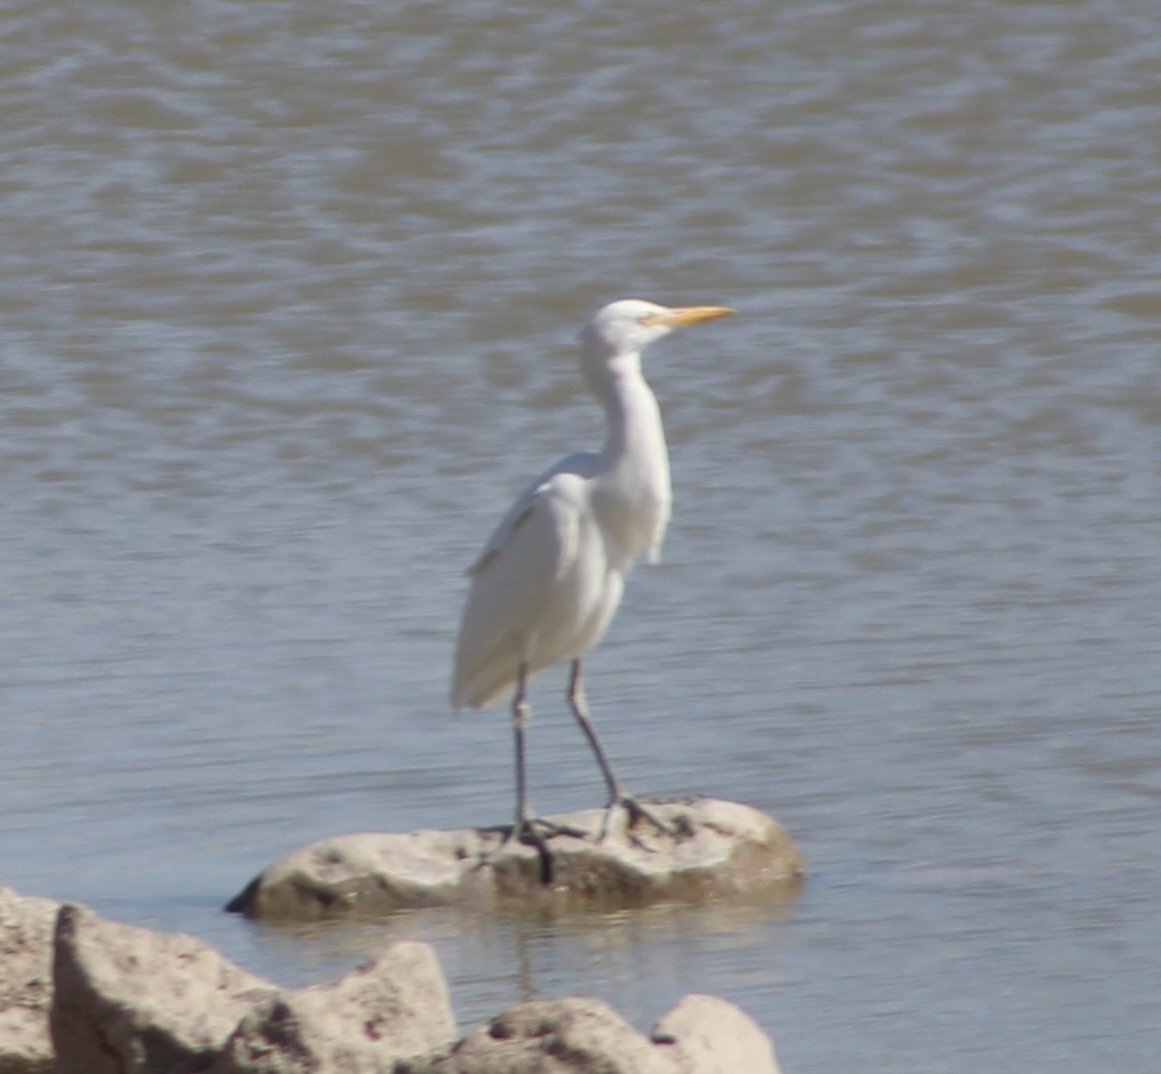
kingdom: Animalia
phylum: Chordata
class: Aves
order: Pelecaniformes
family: Ardeidae
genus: Bubulcus
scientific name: Bubulcus ibis
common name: Cattle egret
